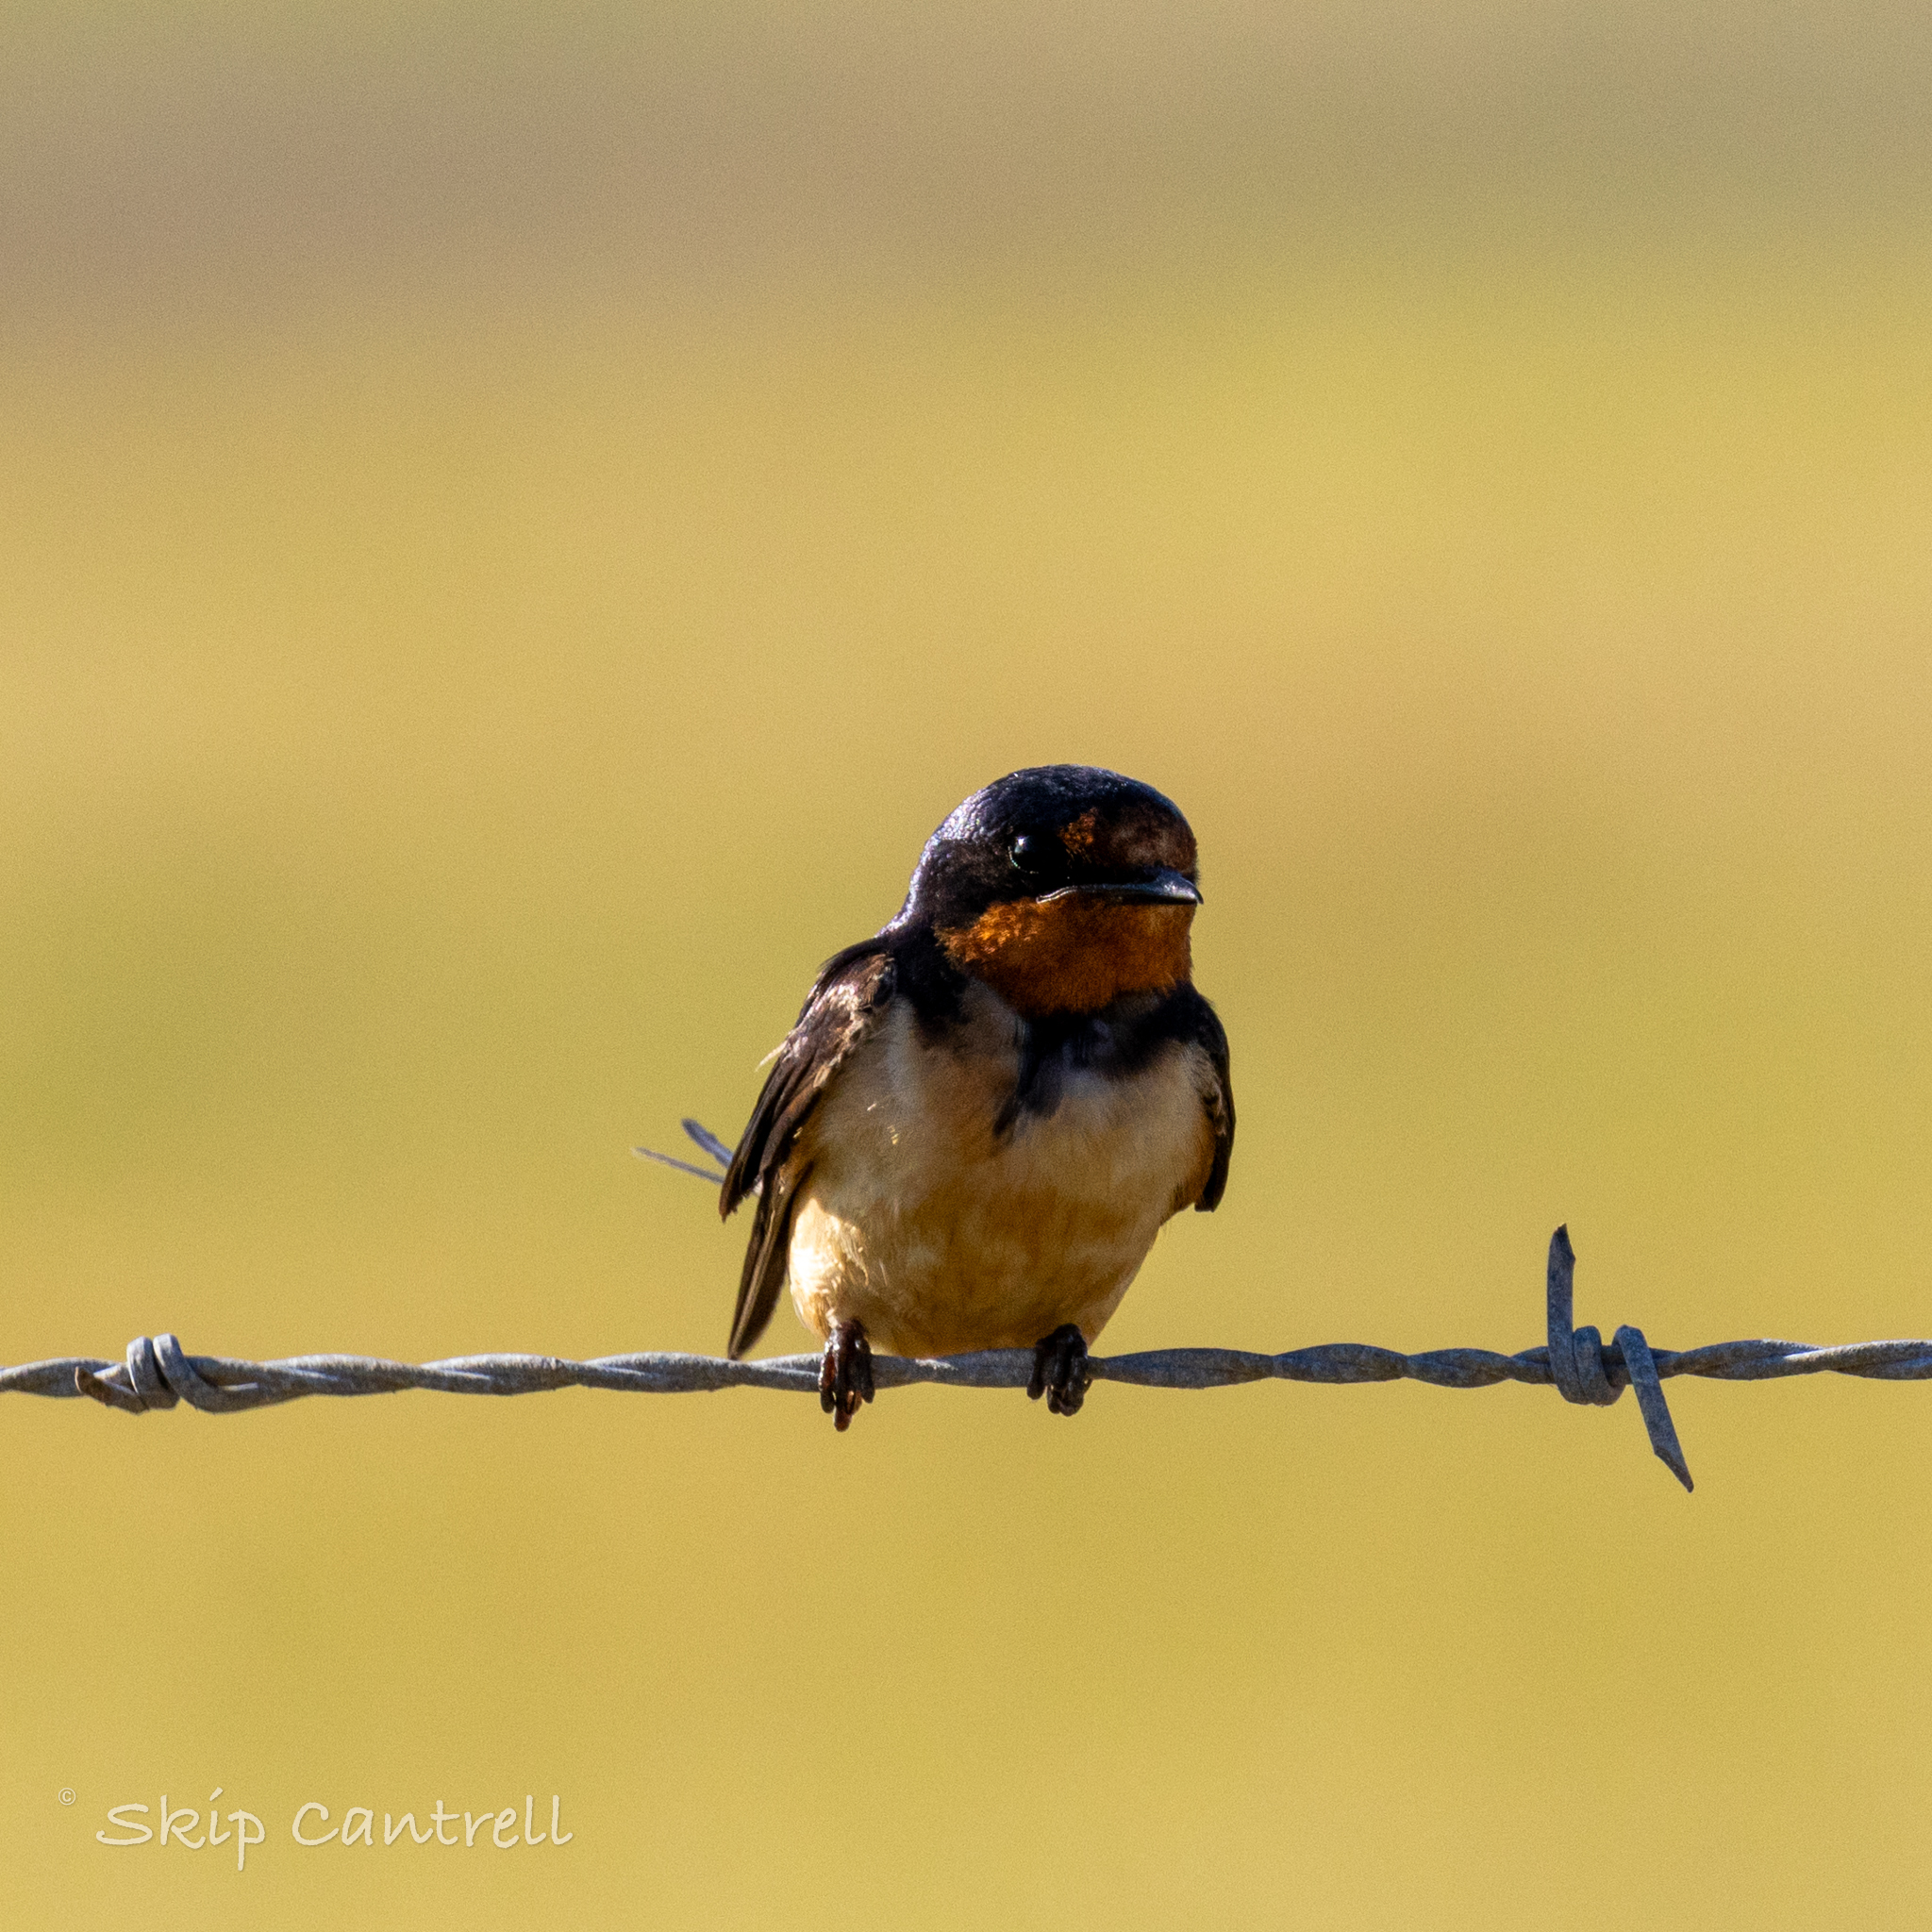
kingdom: Animalia
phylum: Chordata
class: Aves
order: Passeriformes
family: Hirundinidae
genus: Hirundo
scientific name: Hirundo rustica
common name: Barn swallow
